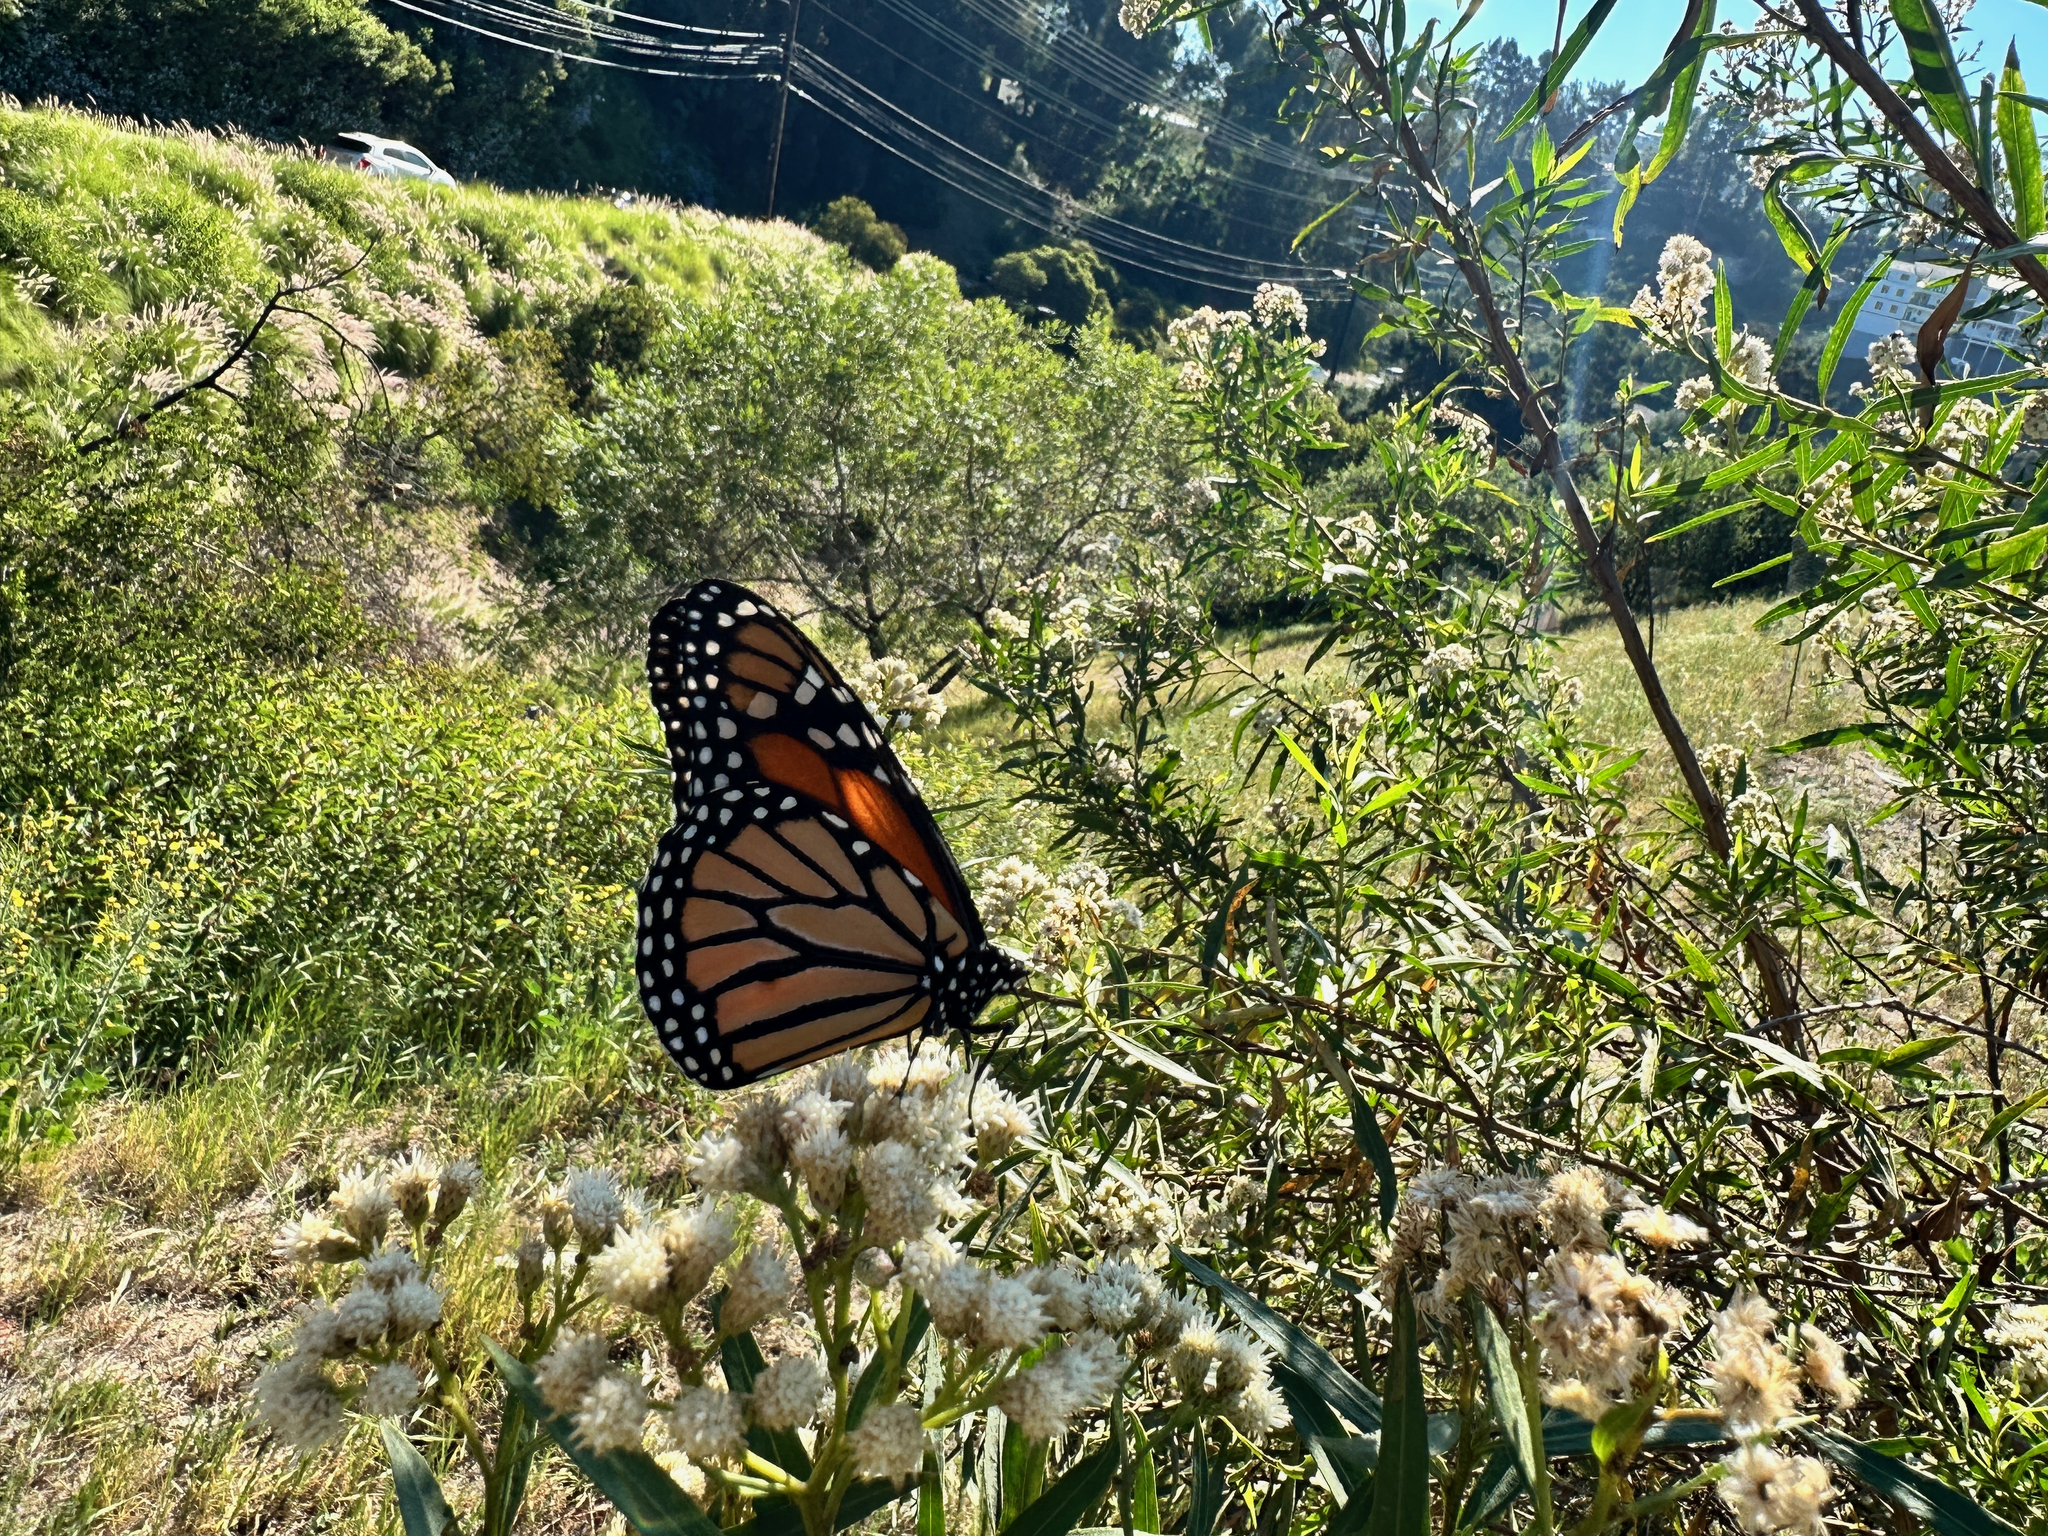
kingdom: Animalia
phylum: Arthropoda
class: Insecta
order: Lepidoptera
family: Nymphalidae
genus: Danaus
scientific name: Danaus plexippus
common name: Monarch
